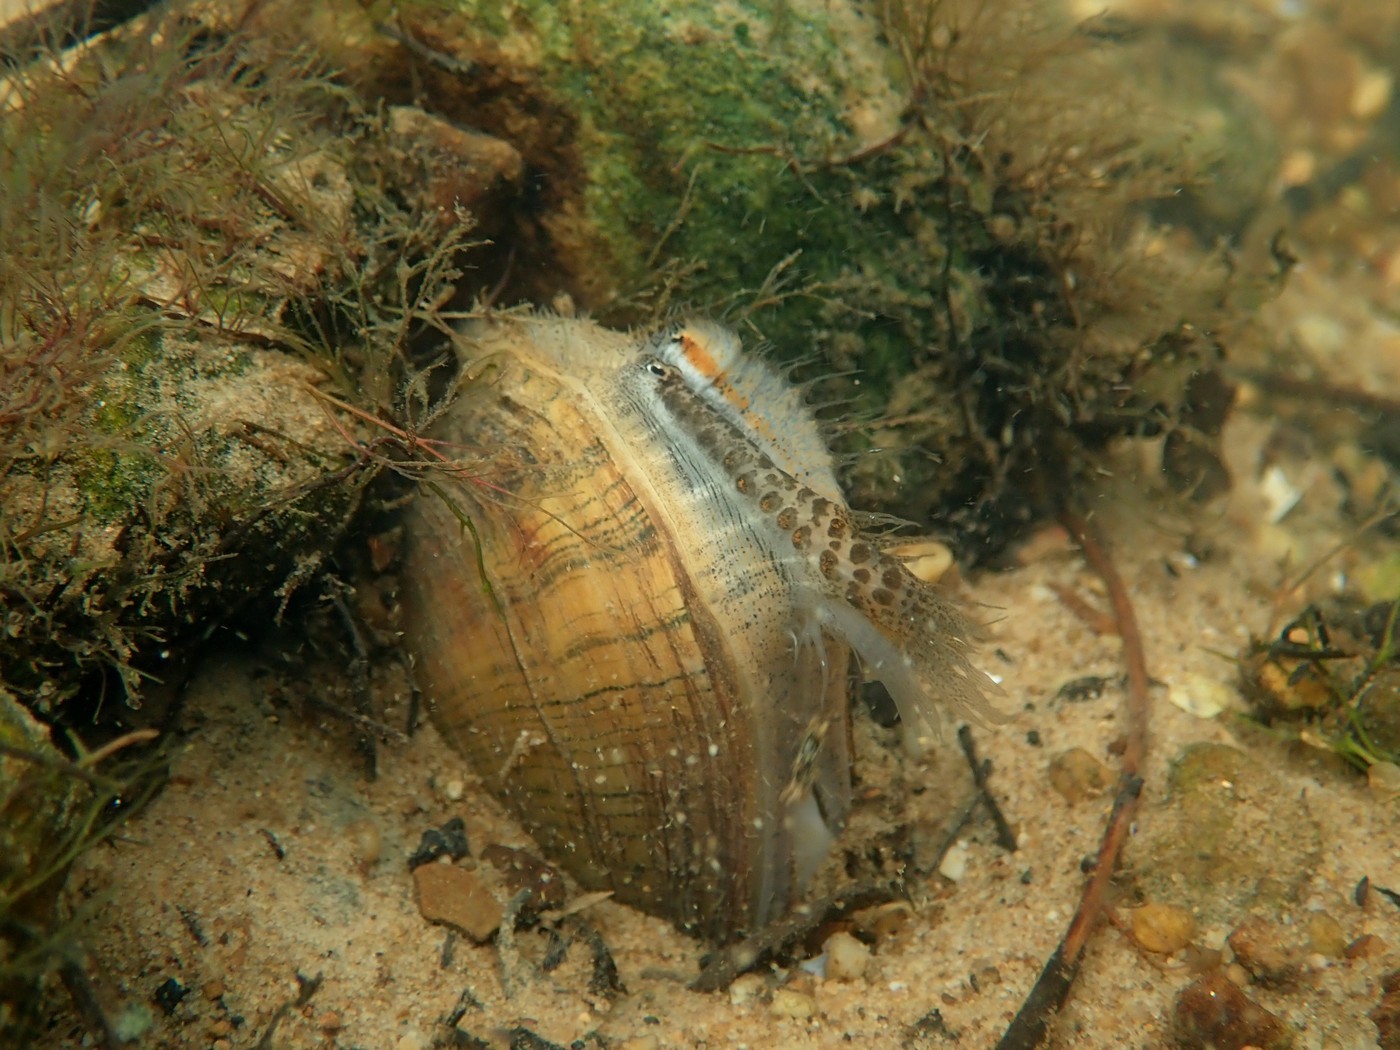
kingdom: Animalia
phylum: Mollusca
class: Bivalvia
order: Unionida
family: Unionidae
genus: Lampsilis
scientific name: Lampsilis fasciola
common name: Wavyrayed lampmussel
